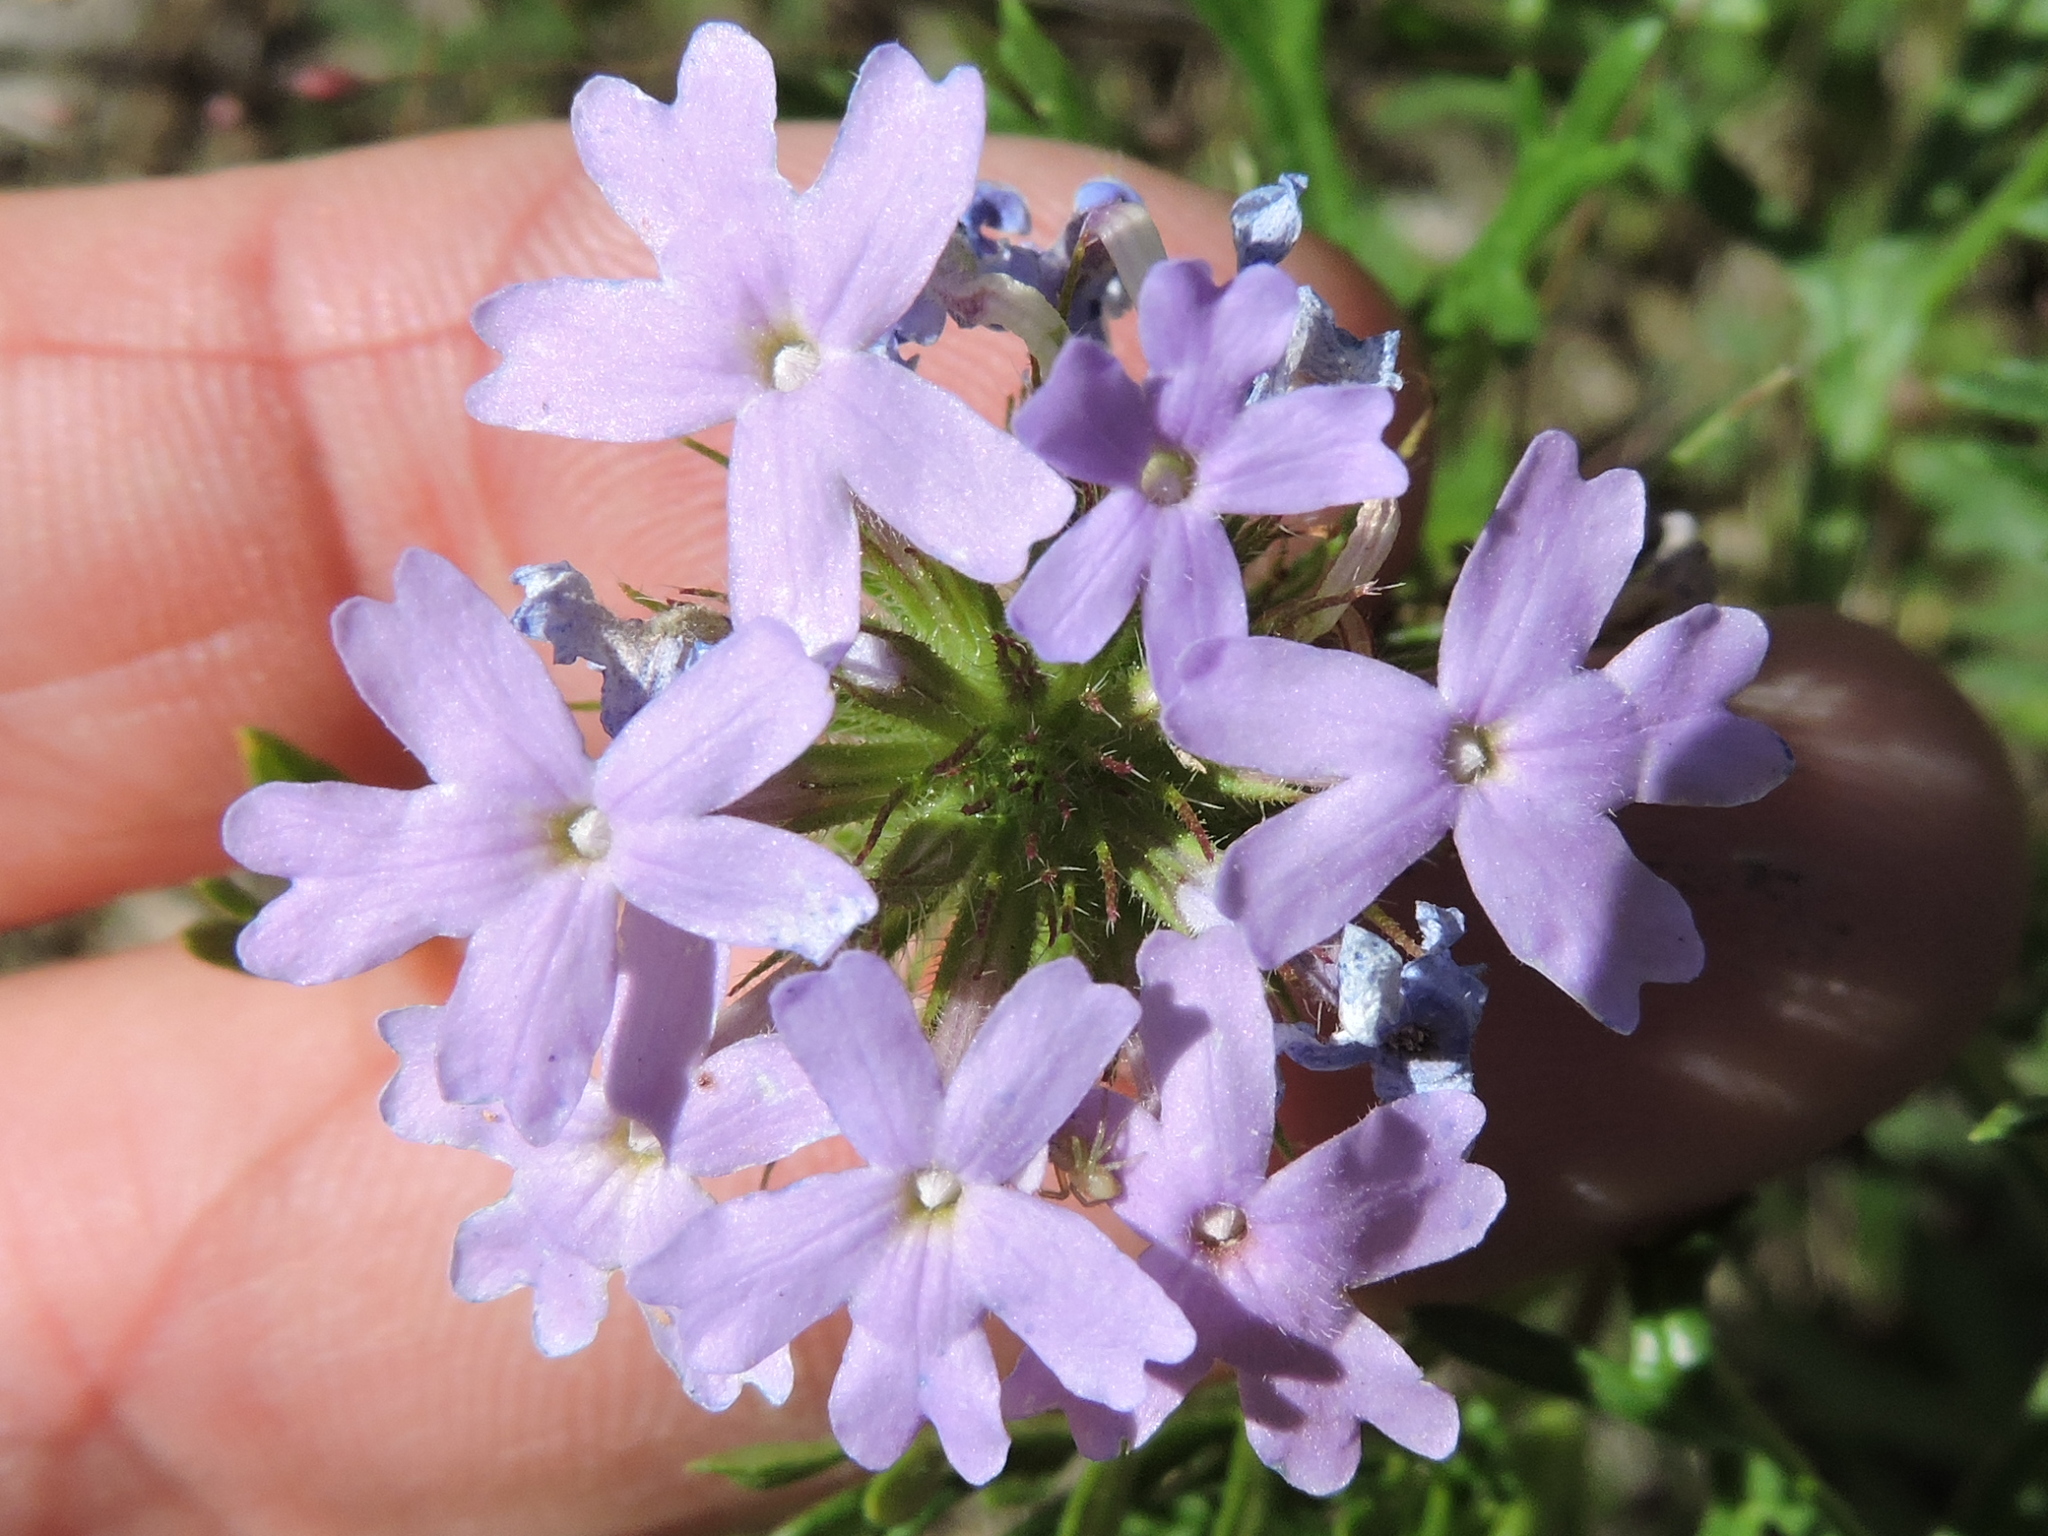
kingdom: Plantae
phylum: Tracheophyta
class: Magnoliopsida
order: Lamiales
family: Verbenaceae
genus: Verbena
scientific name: Verbena bipinnatifida
